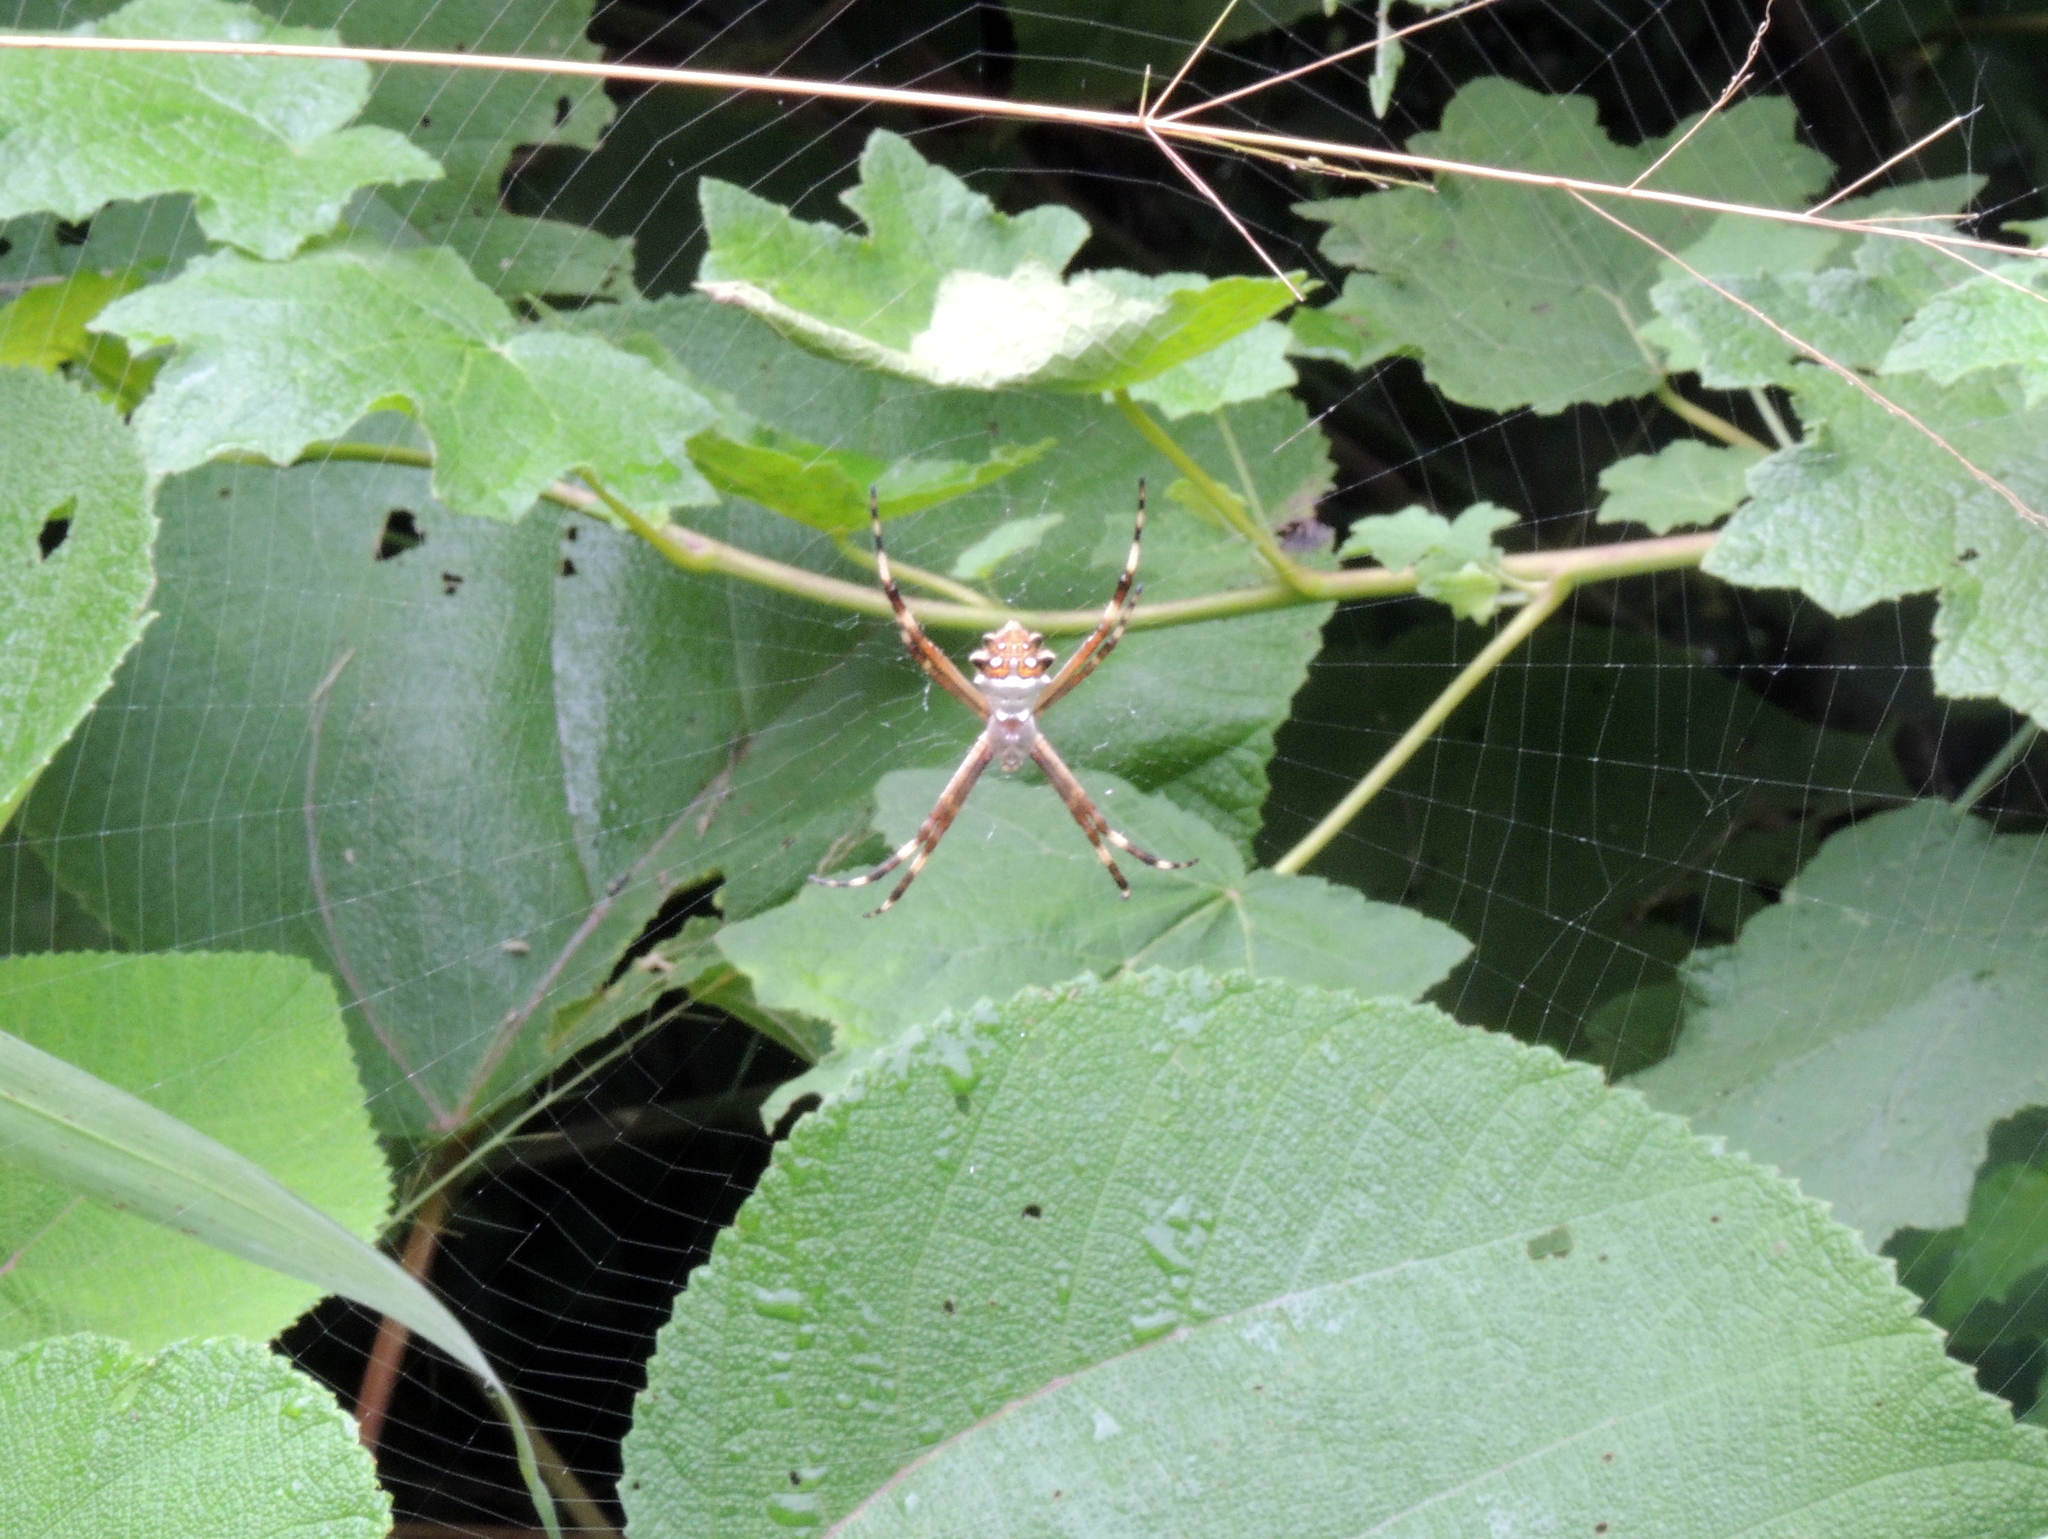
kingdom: Animalia
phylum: Arthropoda
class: Arachnida
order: Araneae
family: Araneidae
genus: Argiope
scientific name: Argiope argentata
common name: Orb weavers
